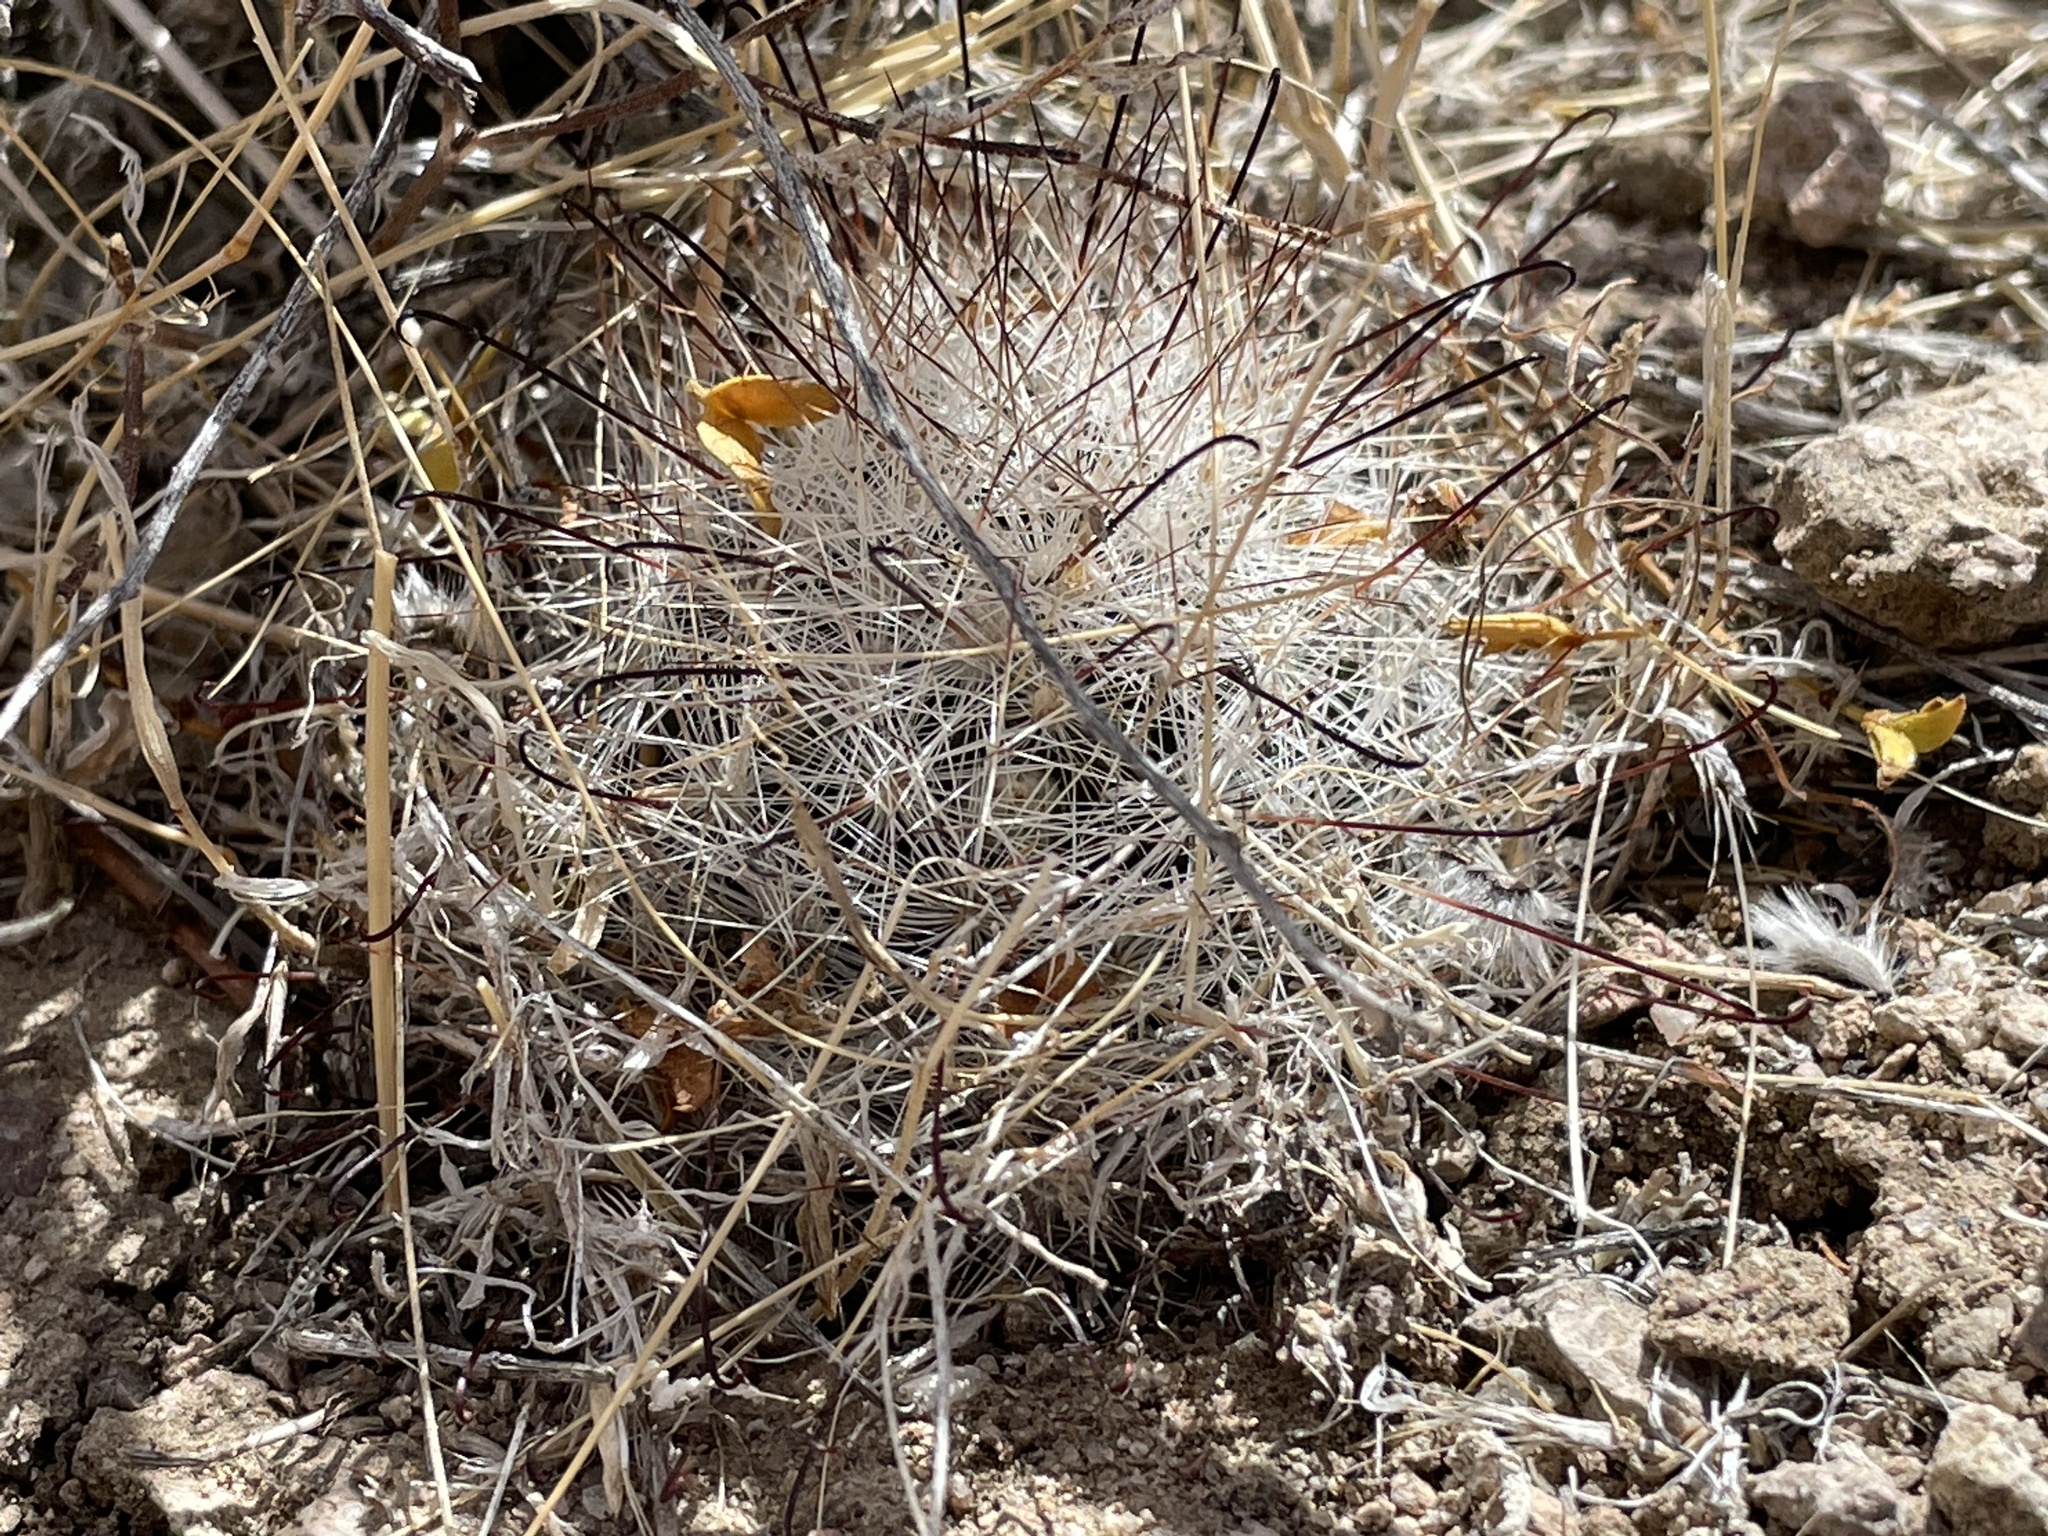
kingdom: Plantae
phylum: Tracheophyta
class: Magnoliopsida
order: Caryophyllales
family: Cactaceae
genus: Cochemiea
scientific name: Cochemiea tetrancistra
